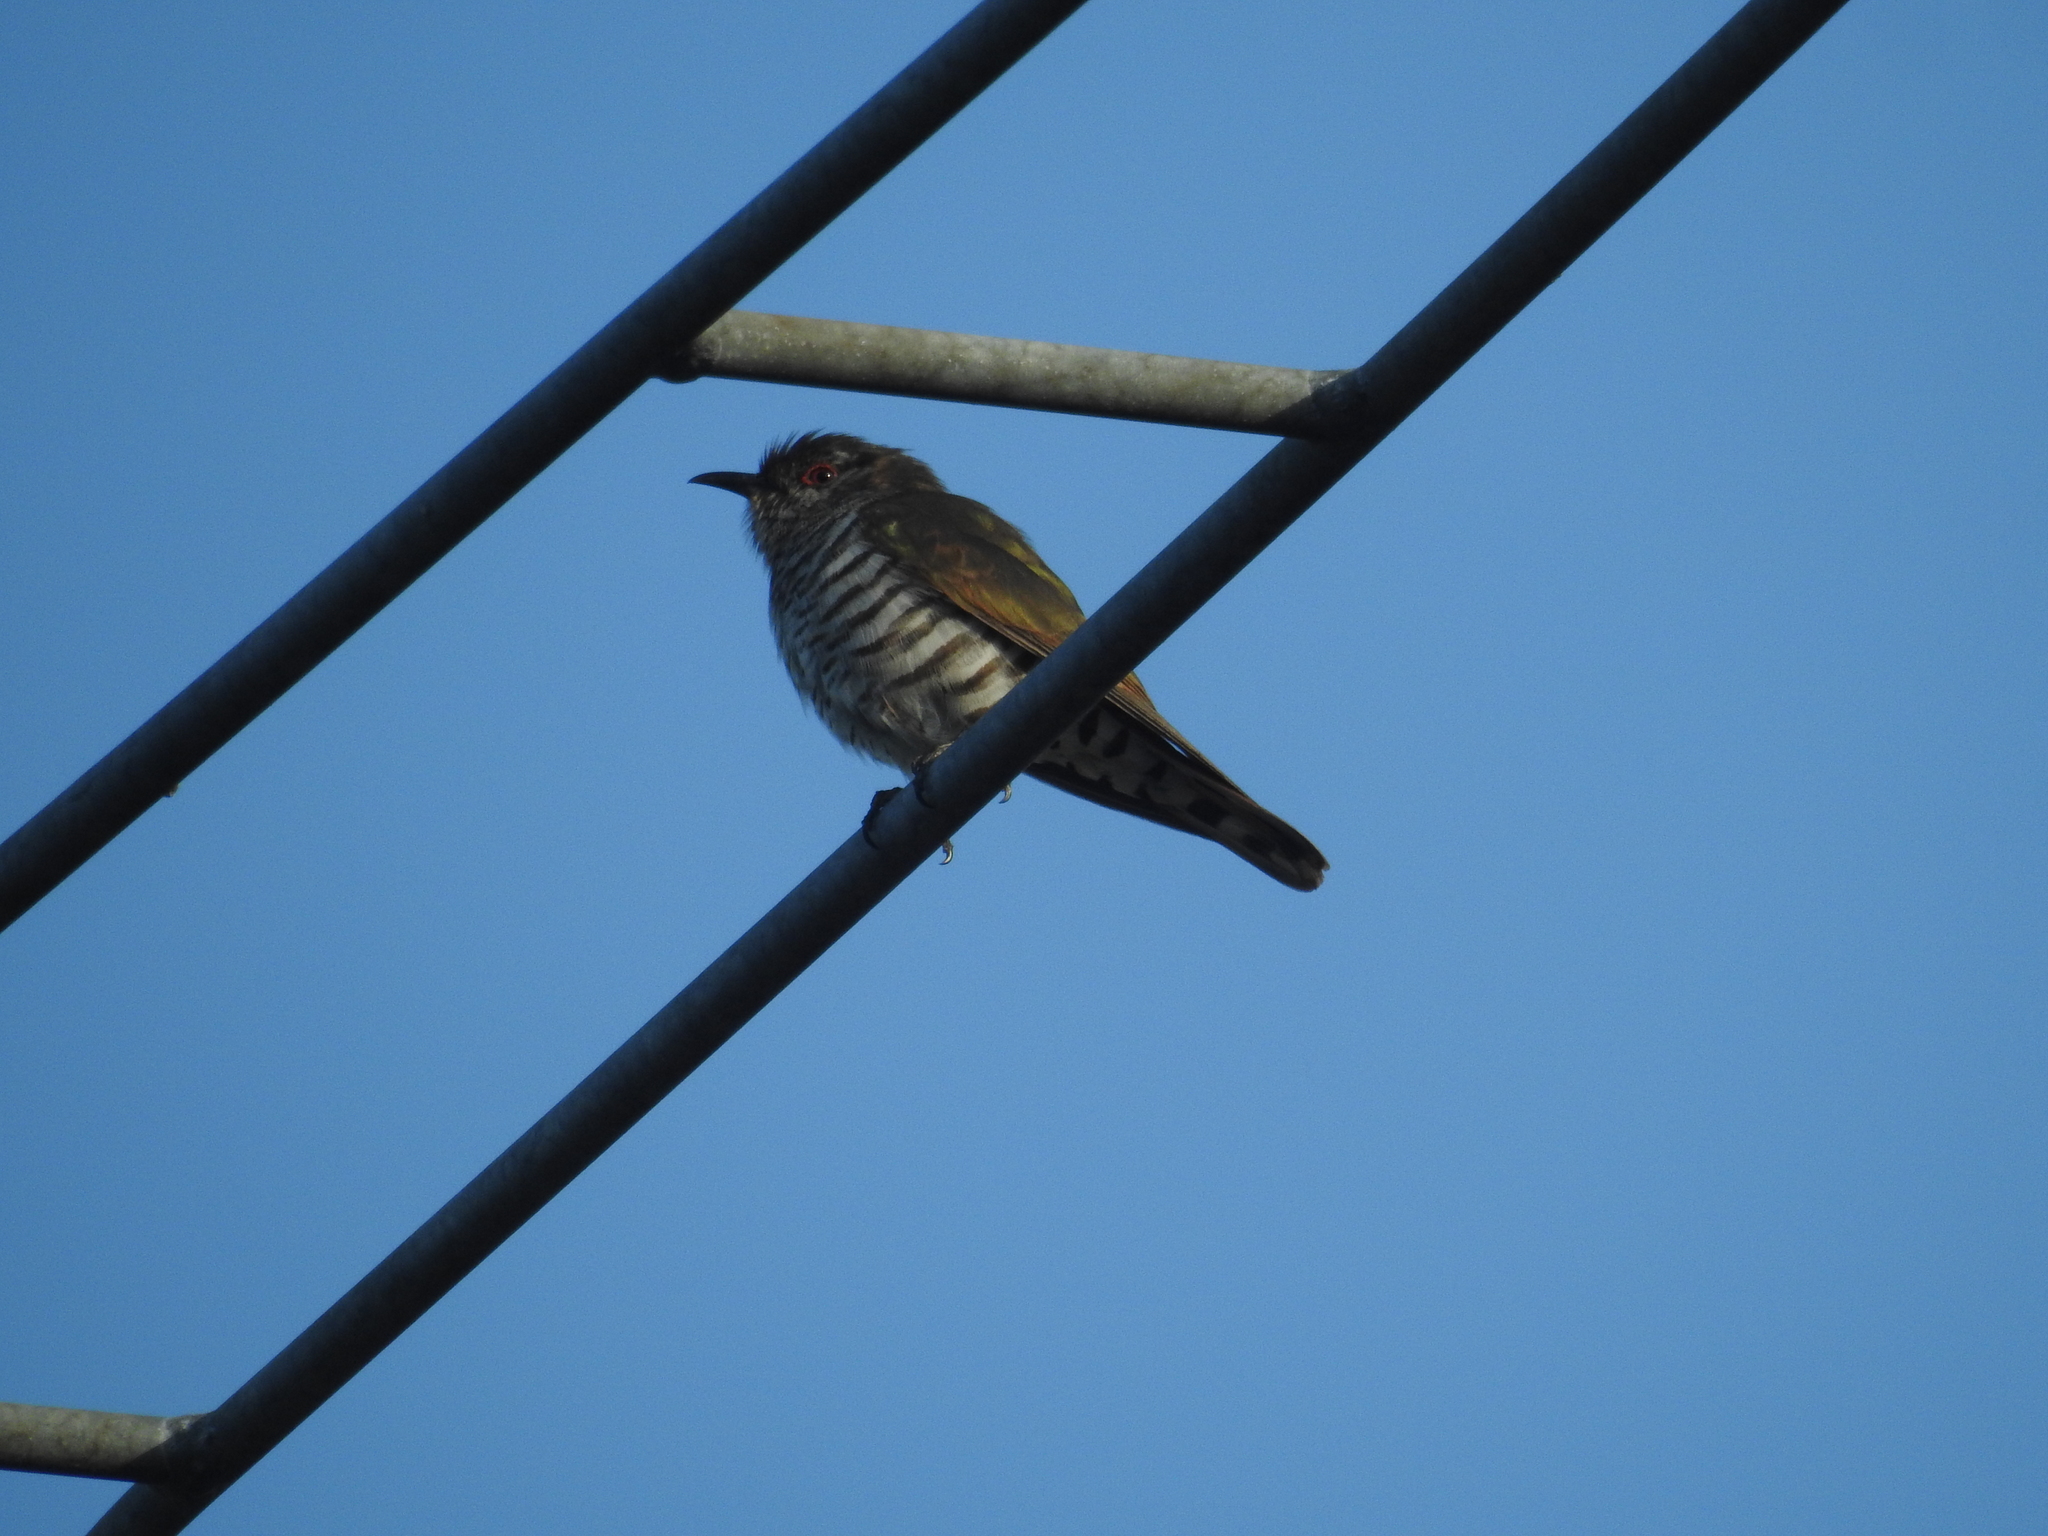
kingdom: Animalia
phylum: Chordata
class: Aves
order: Cuculiformes
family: Cuculidae
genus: Chrysococcyx
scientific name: Chrysococcyx minutillus
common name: Little bronze cuckoo
